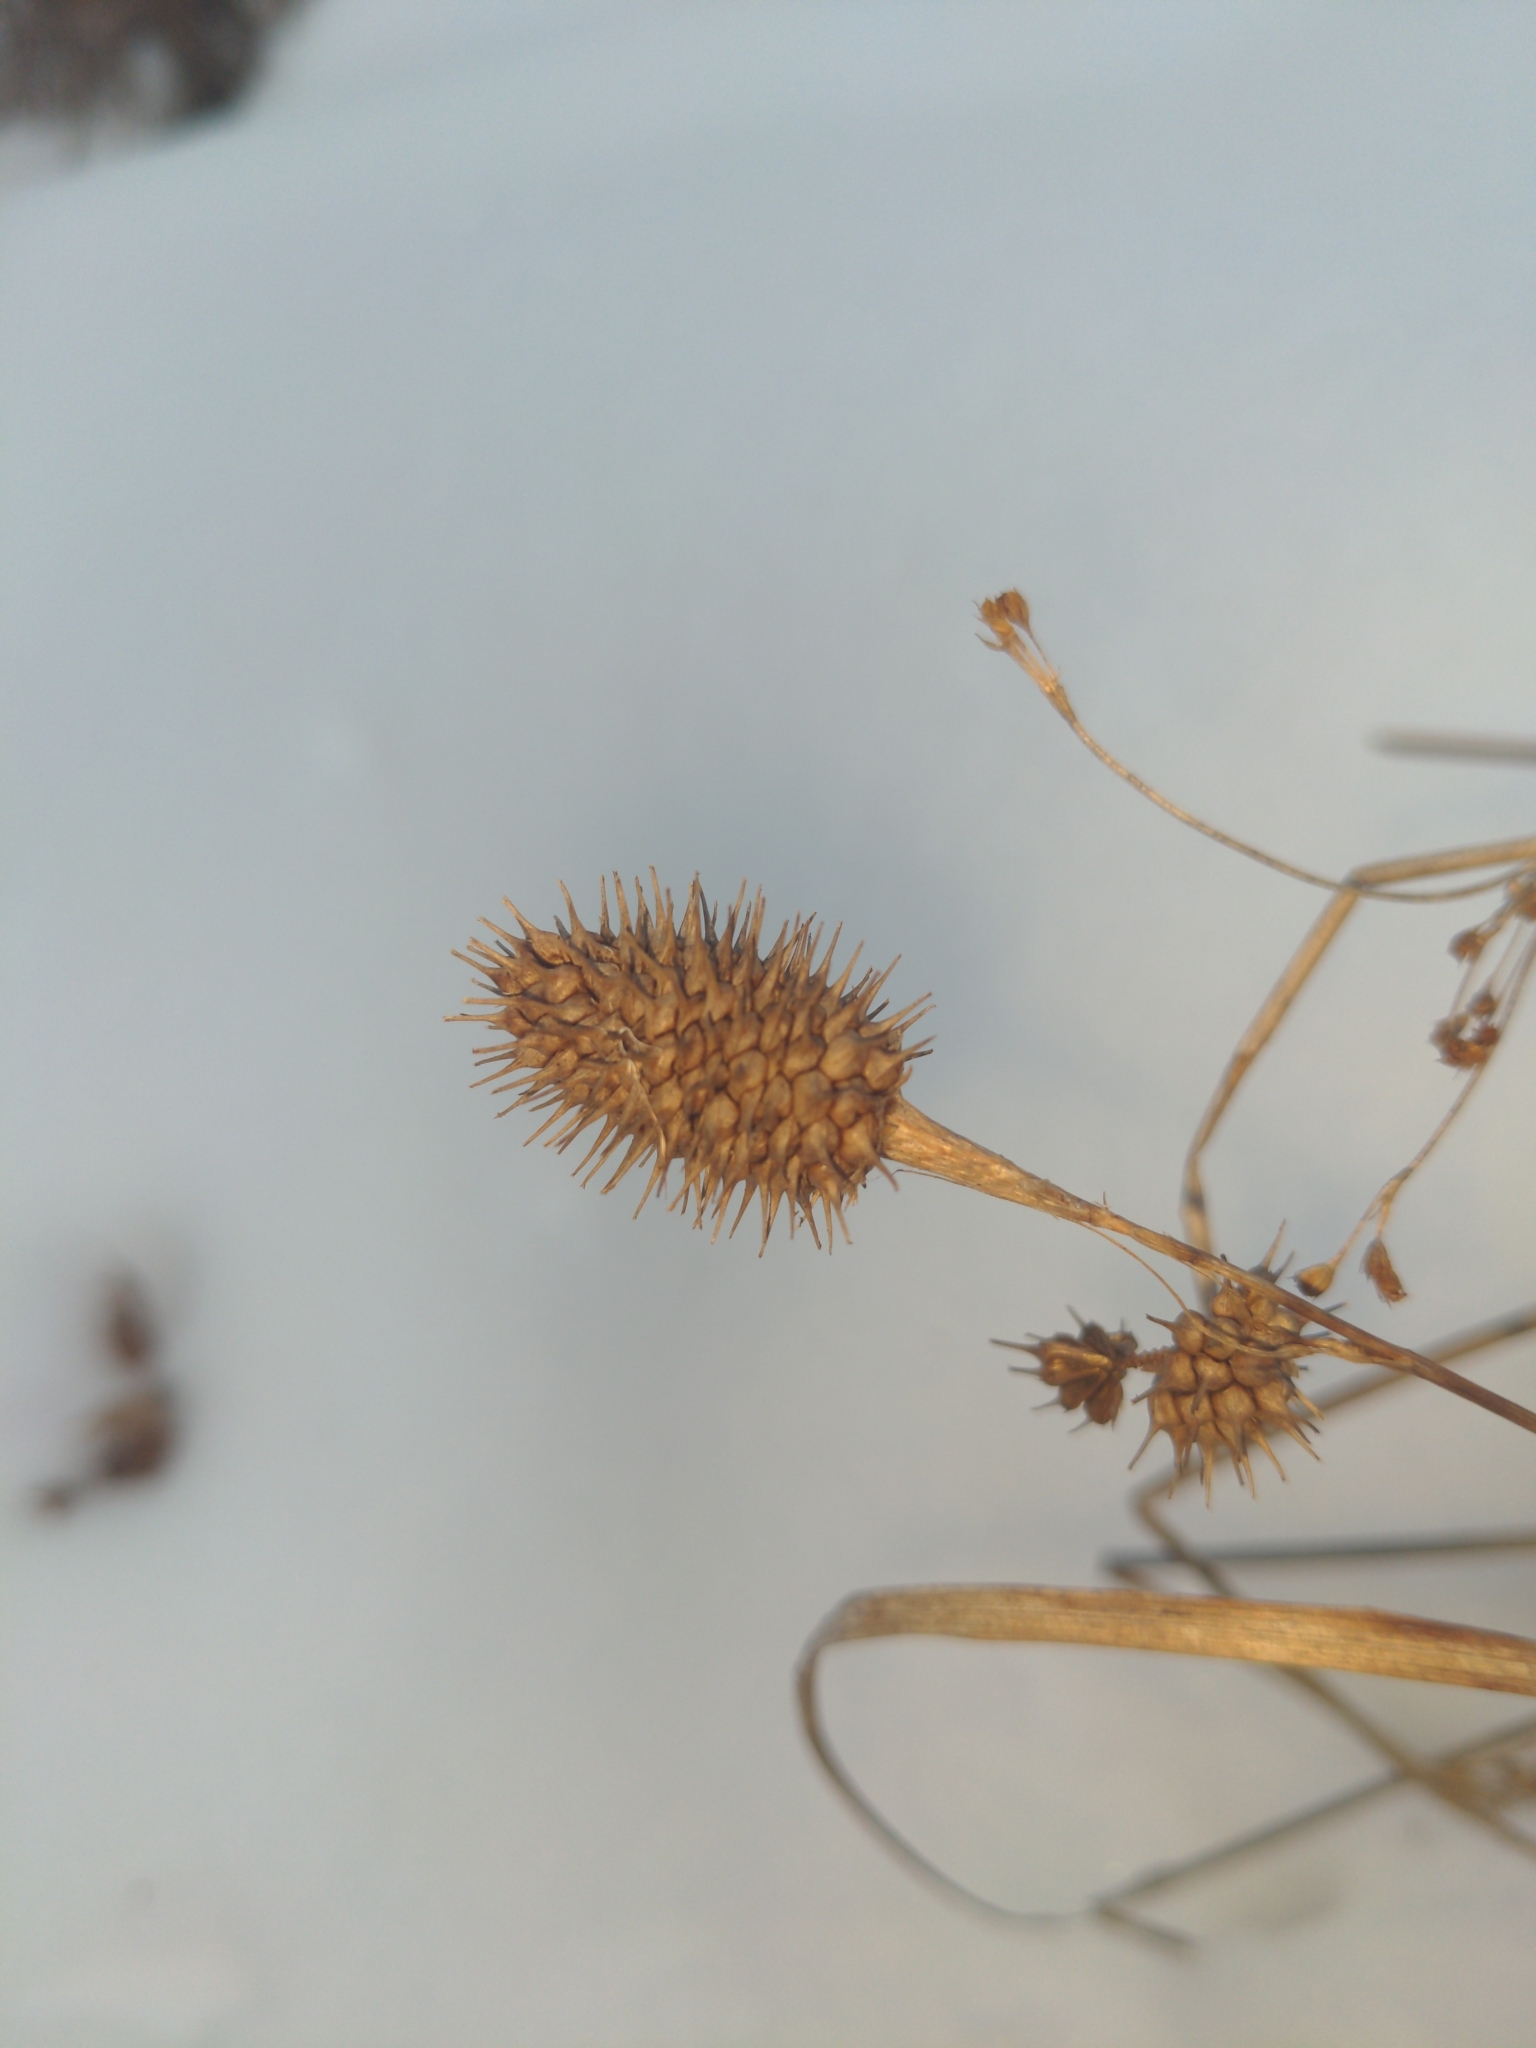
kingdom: Plantae
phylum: Tracheophyta
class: Liliopsida
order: Poales
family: Cyperaceae
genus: Carex
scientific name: Carex squarrosa
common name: Narrow-leaved cattail sedge
